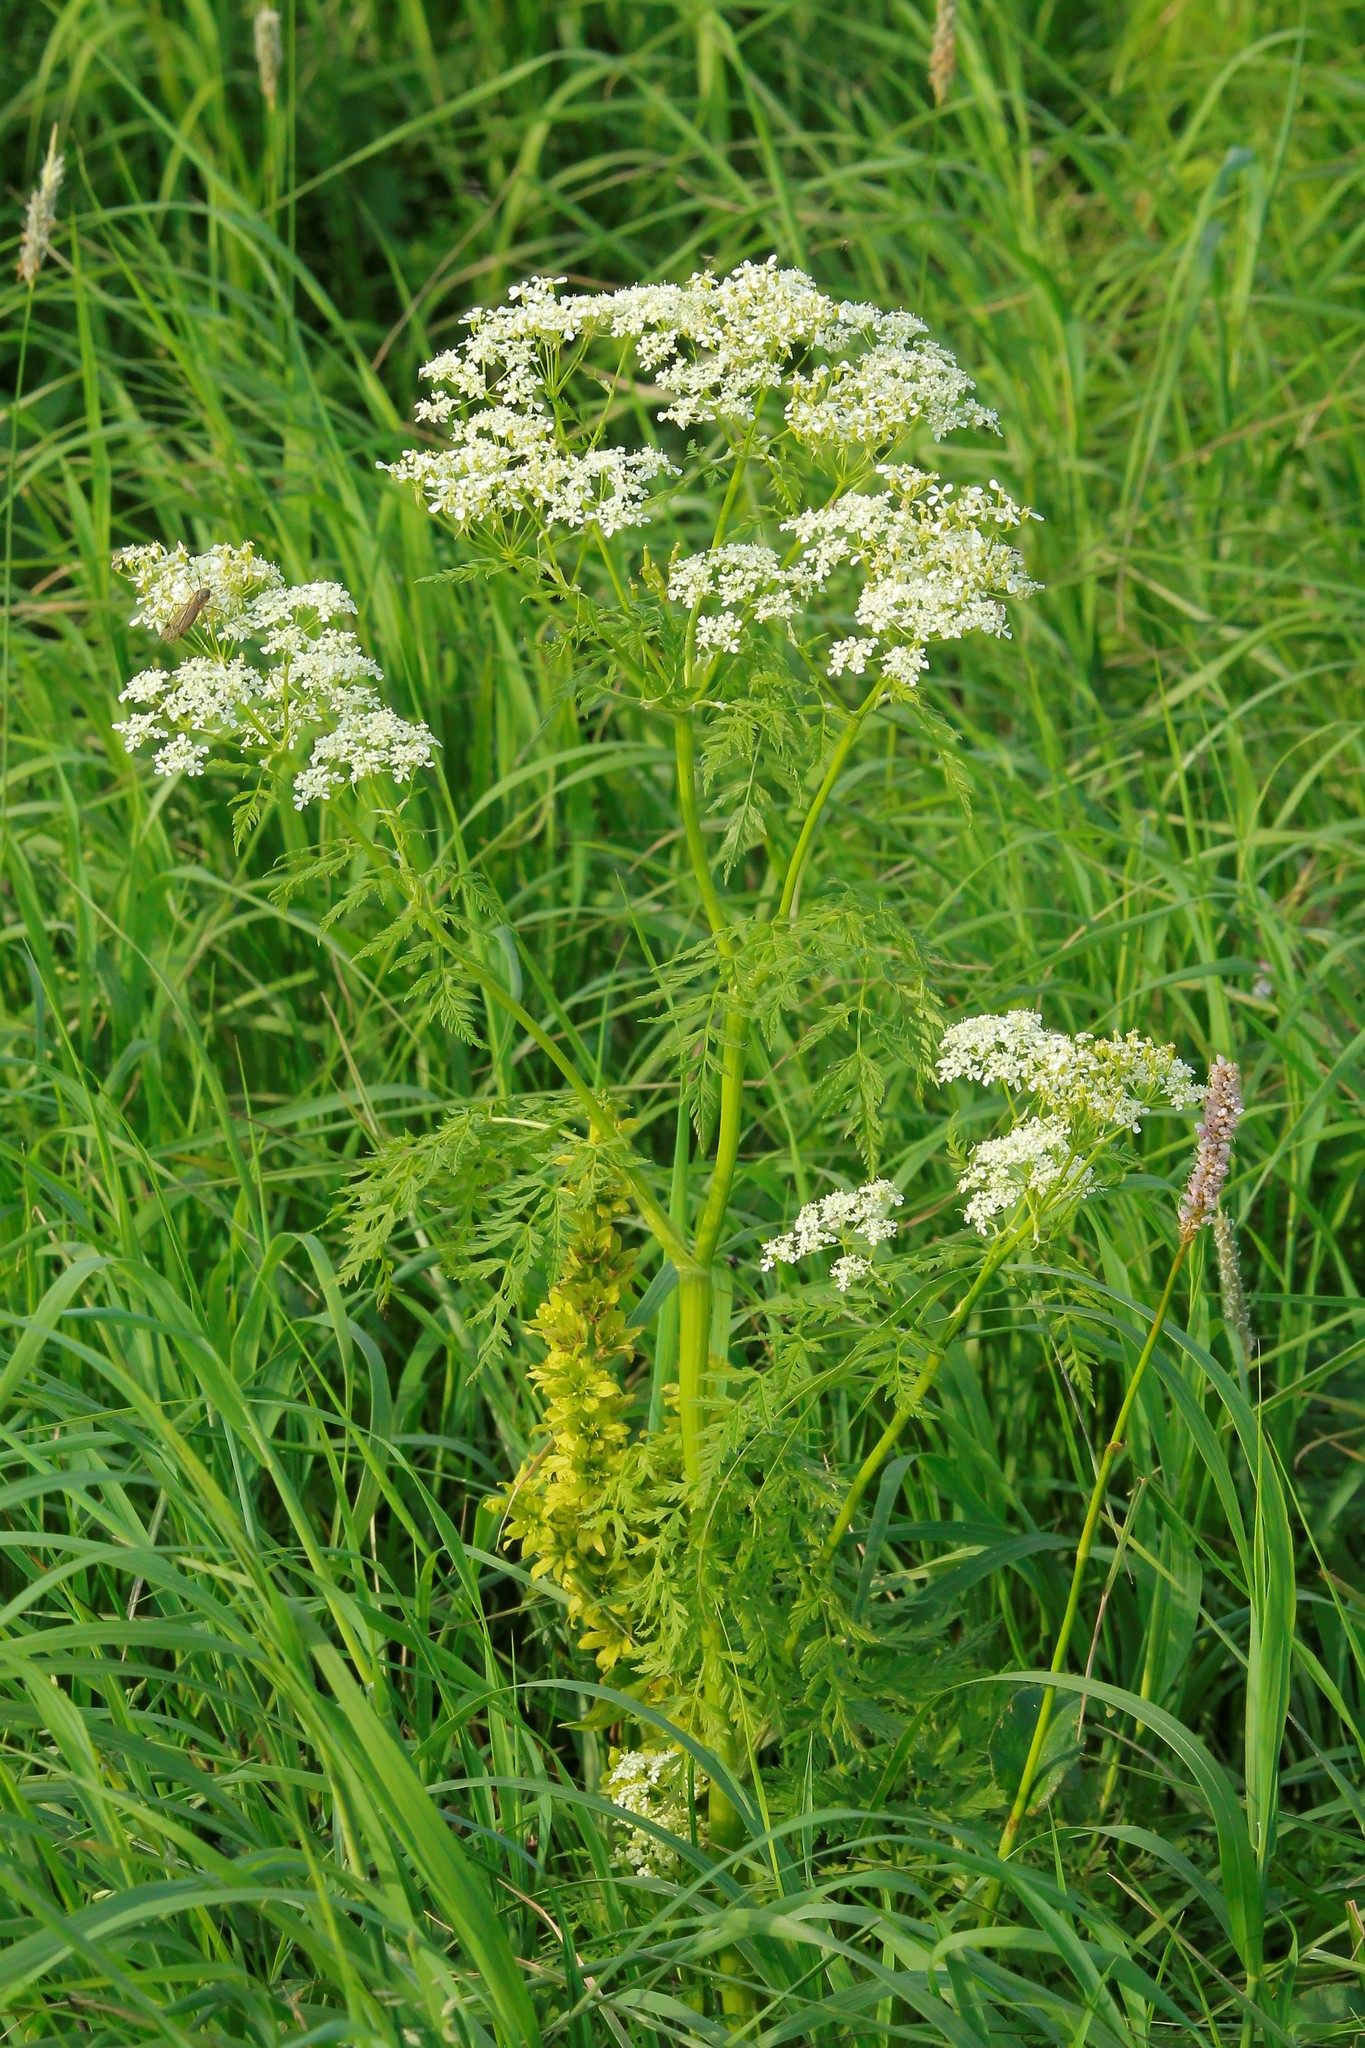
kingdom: Plantae
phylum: Tracheophyta
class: Magnoliopsida
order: Apiales
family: Apiaceae
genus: Anthriscus
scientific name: Anthriscus sylvestris
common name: Cow parsley
